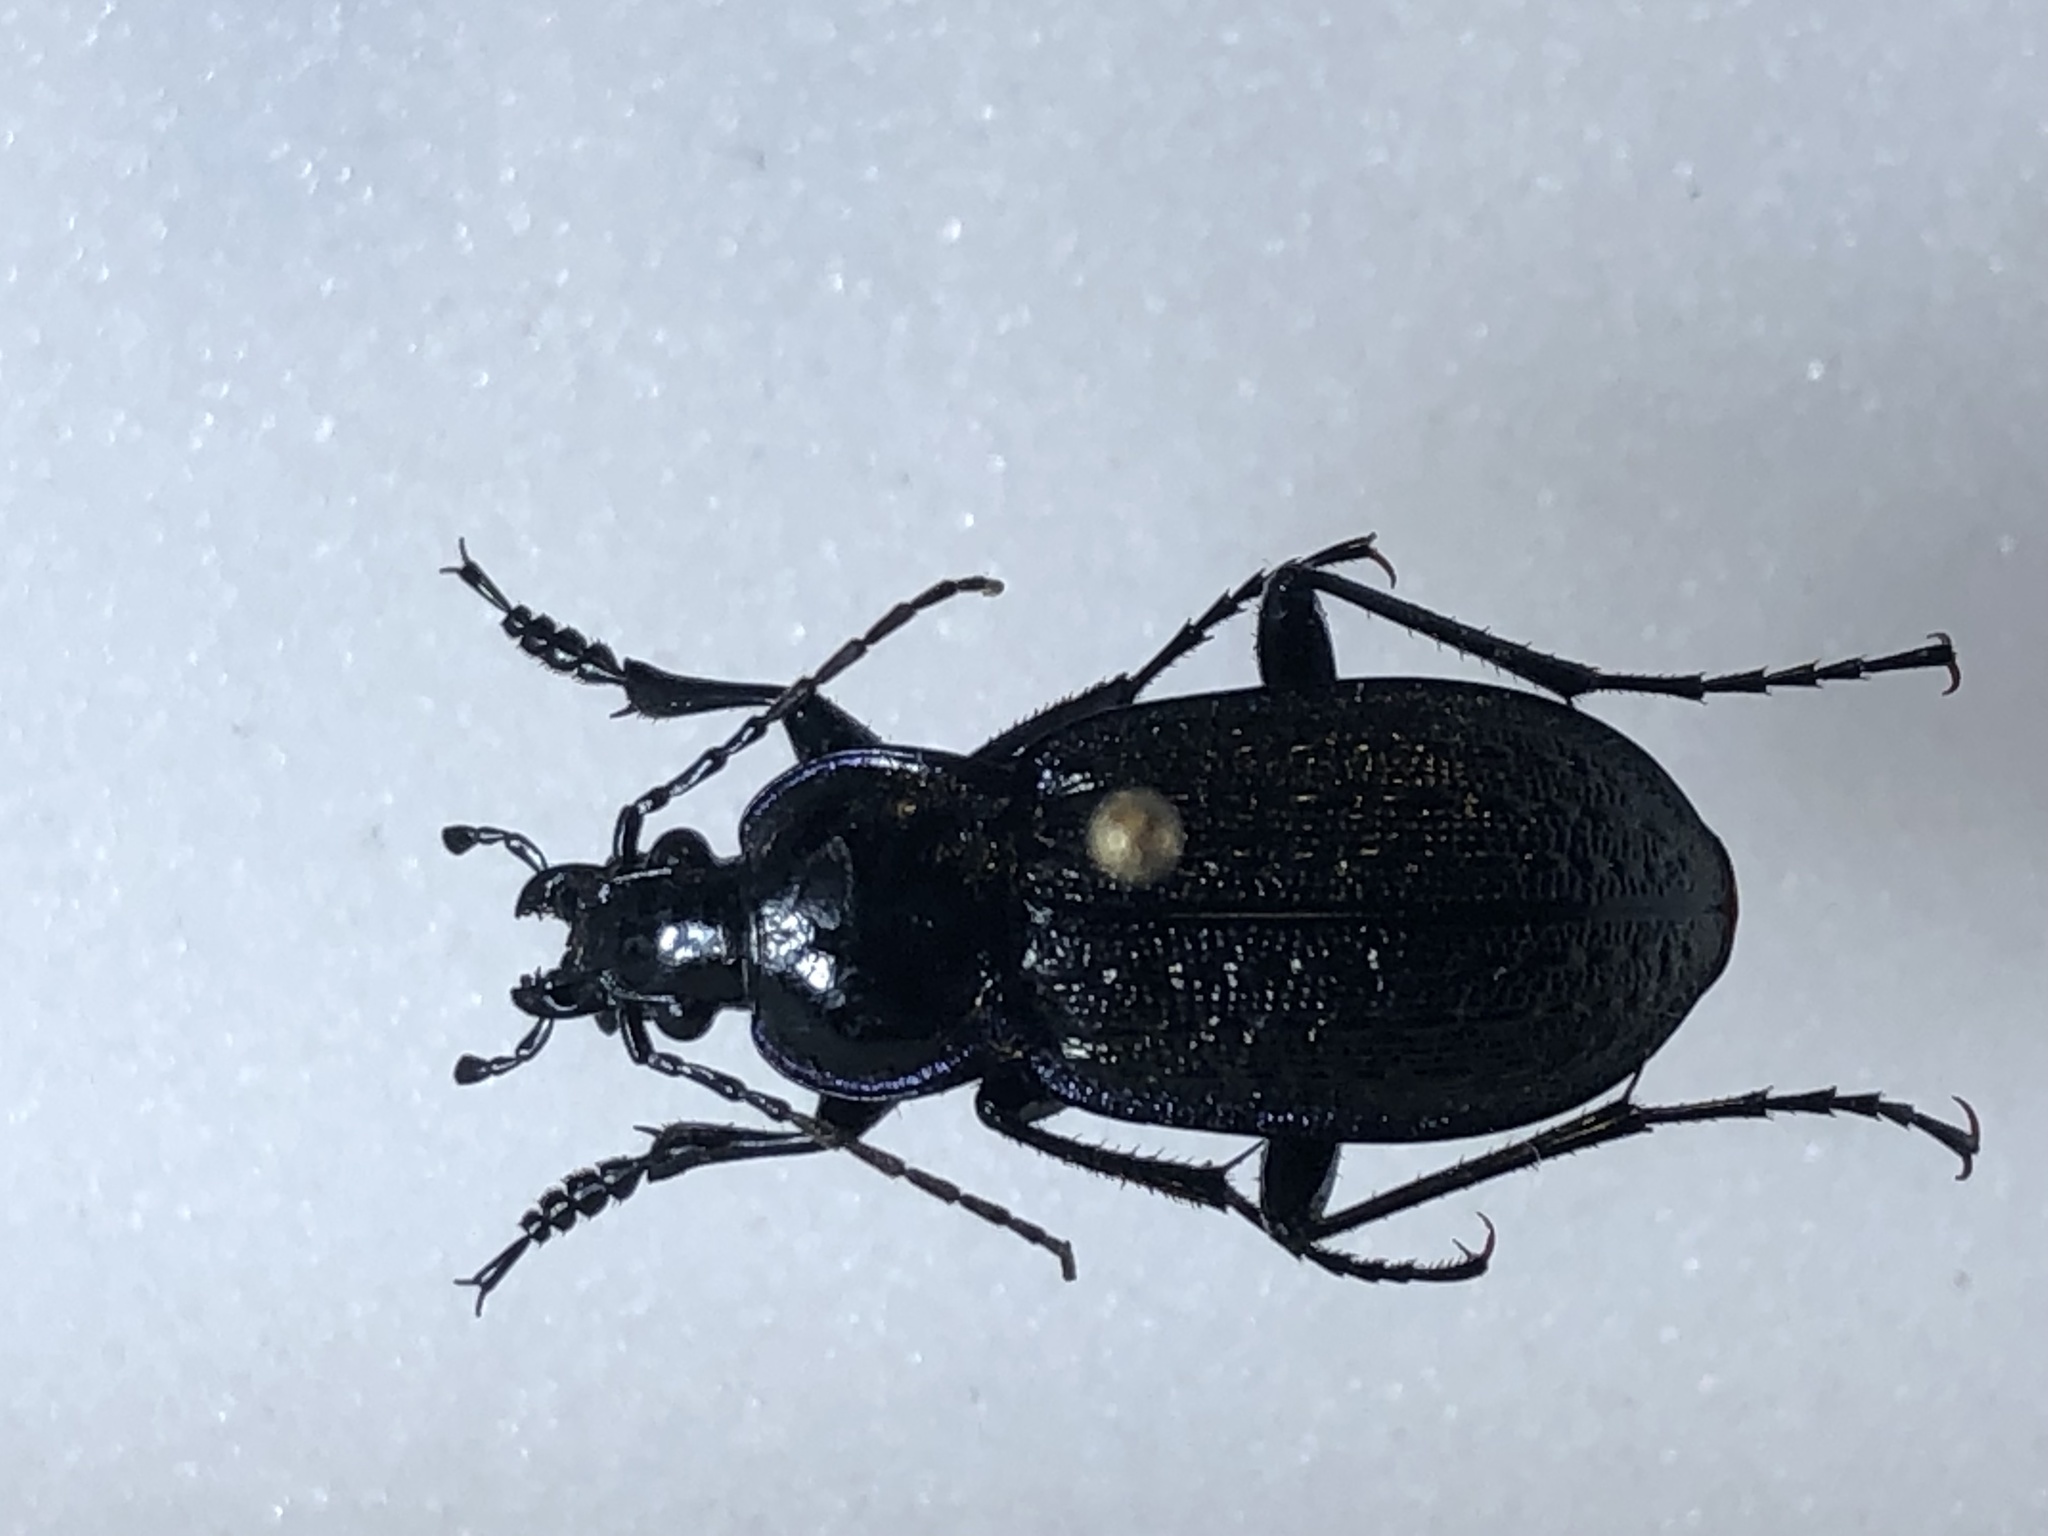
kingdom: Animalia
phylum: Arthropoda
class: Insecta
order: Coleoptera
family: Carabidae
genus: Carabus
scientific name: Carabus serratus
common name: Serrate-shoulder worm and slug hunter
